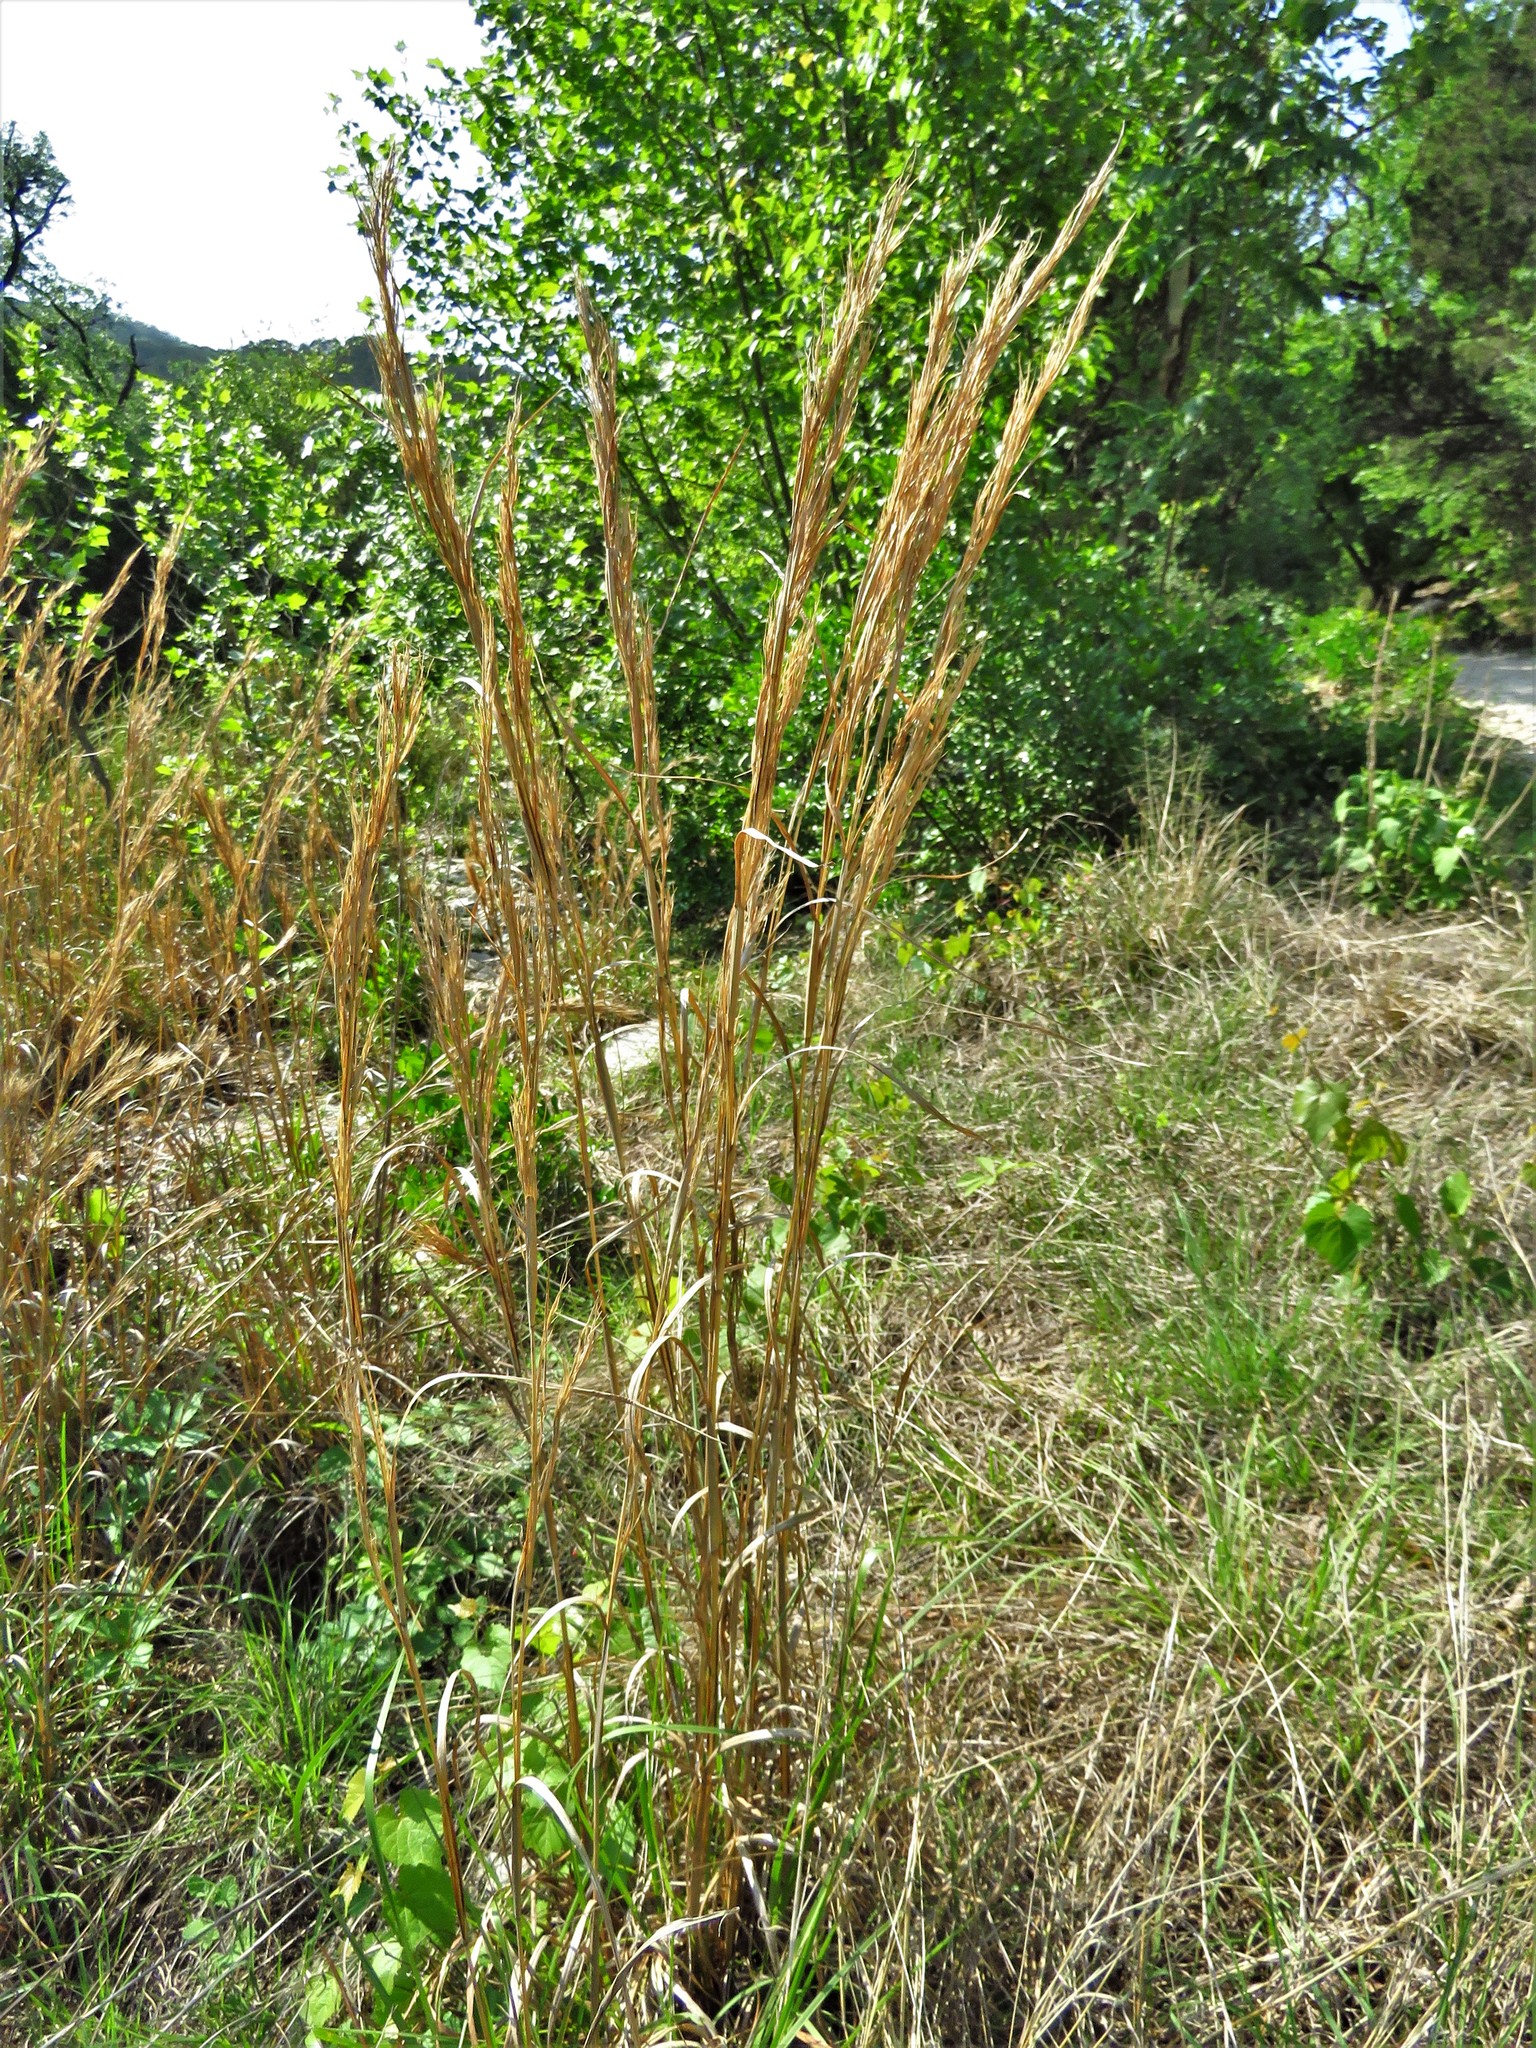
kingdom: Plantae
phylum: Tracheophyta
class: Liliopsida
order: Poales
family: Poaceae
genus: Andropogon
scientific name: Andropogon tenuispatheus
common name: Bushy bluestem
